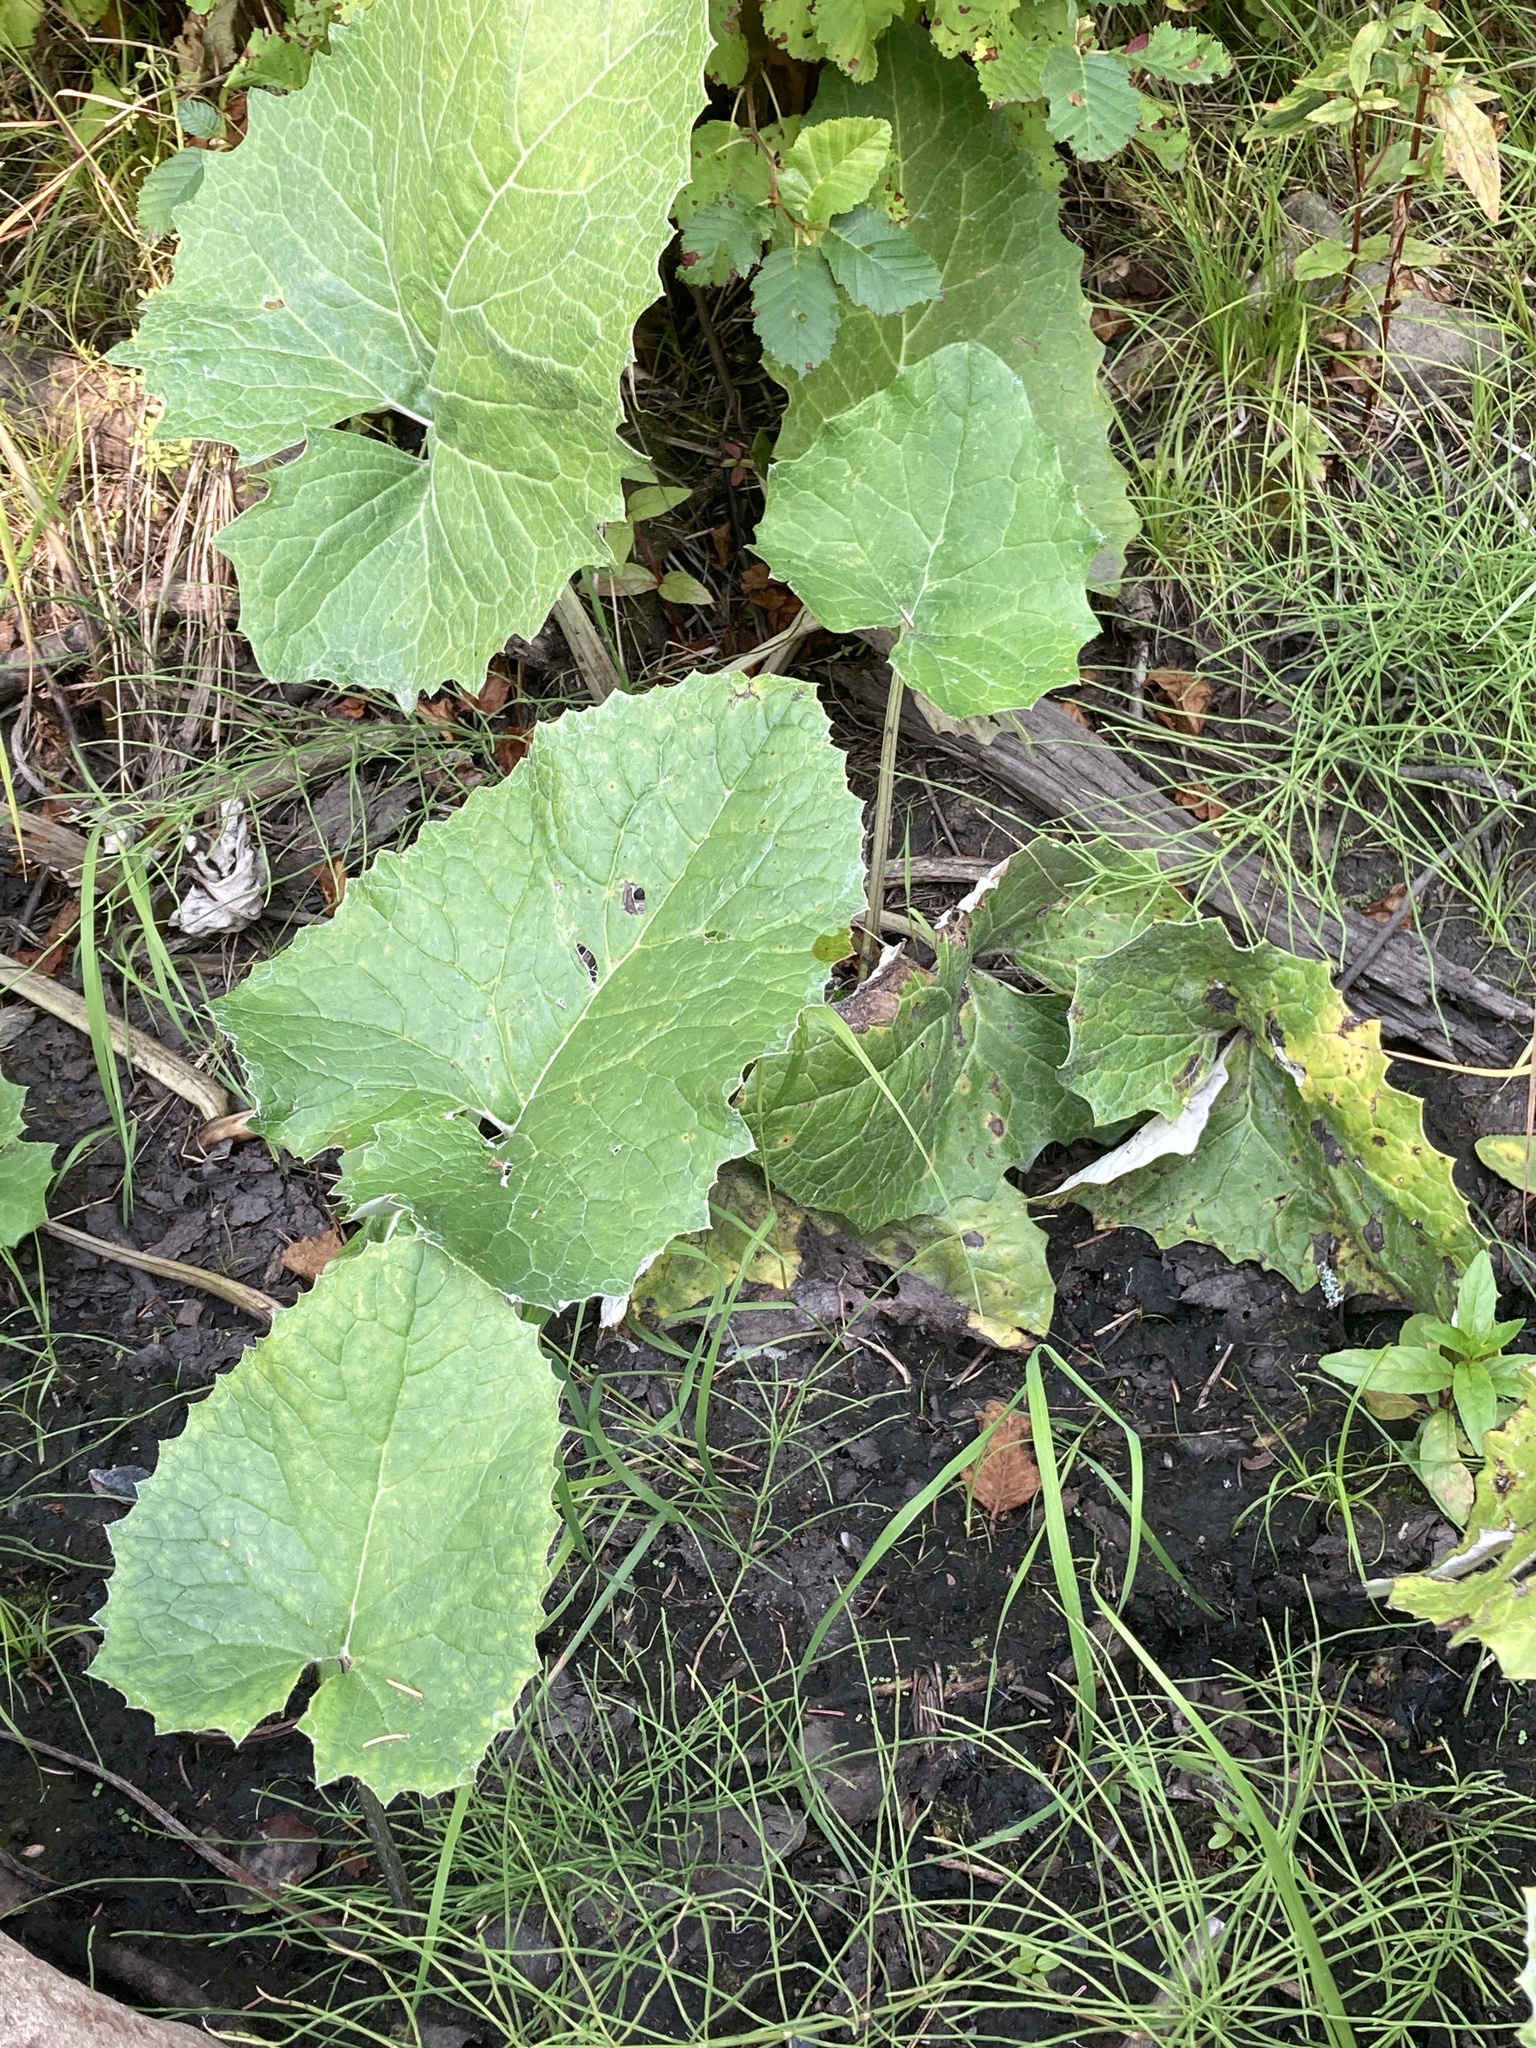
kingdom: Plantae
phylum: Tracheophyta
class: Magnoliopsida
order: Asterales
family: Asteraceae
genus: Petasites
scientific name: Petasites frigidus
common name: Arctic butterbur
